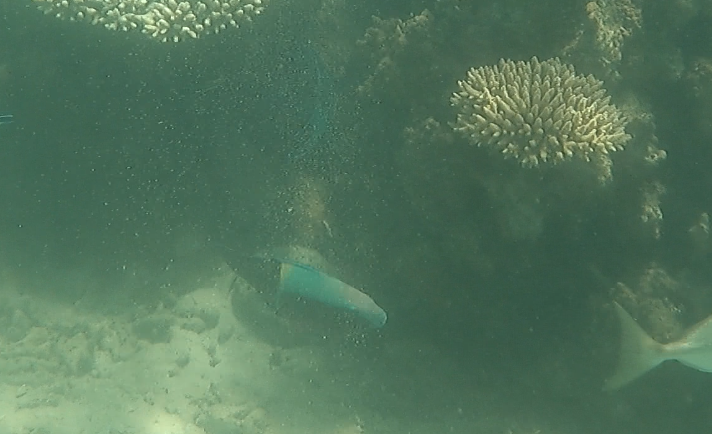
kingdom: Animalia
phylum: Chordata
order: Perciformes
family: Scaridae
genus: Scarus
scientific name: Scarus schlegeli
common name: Schlegel's parrotfish
